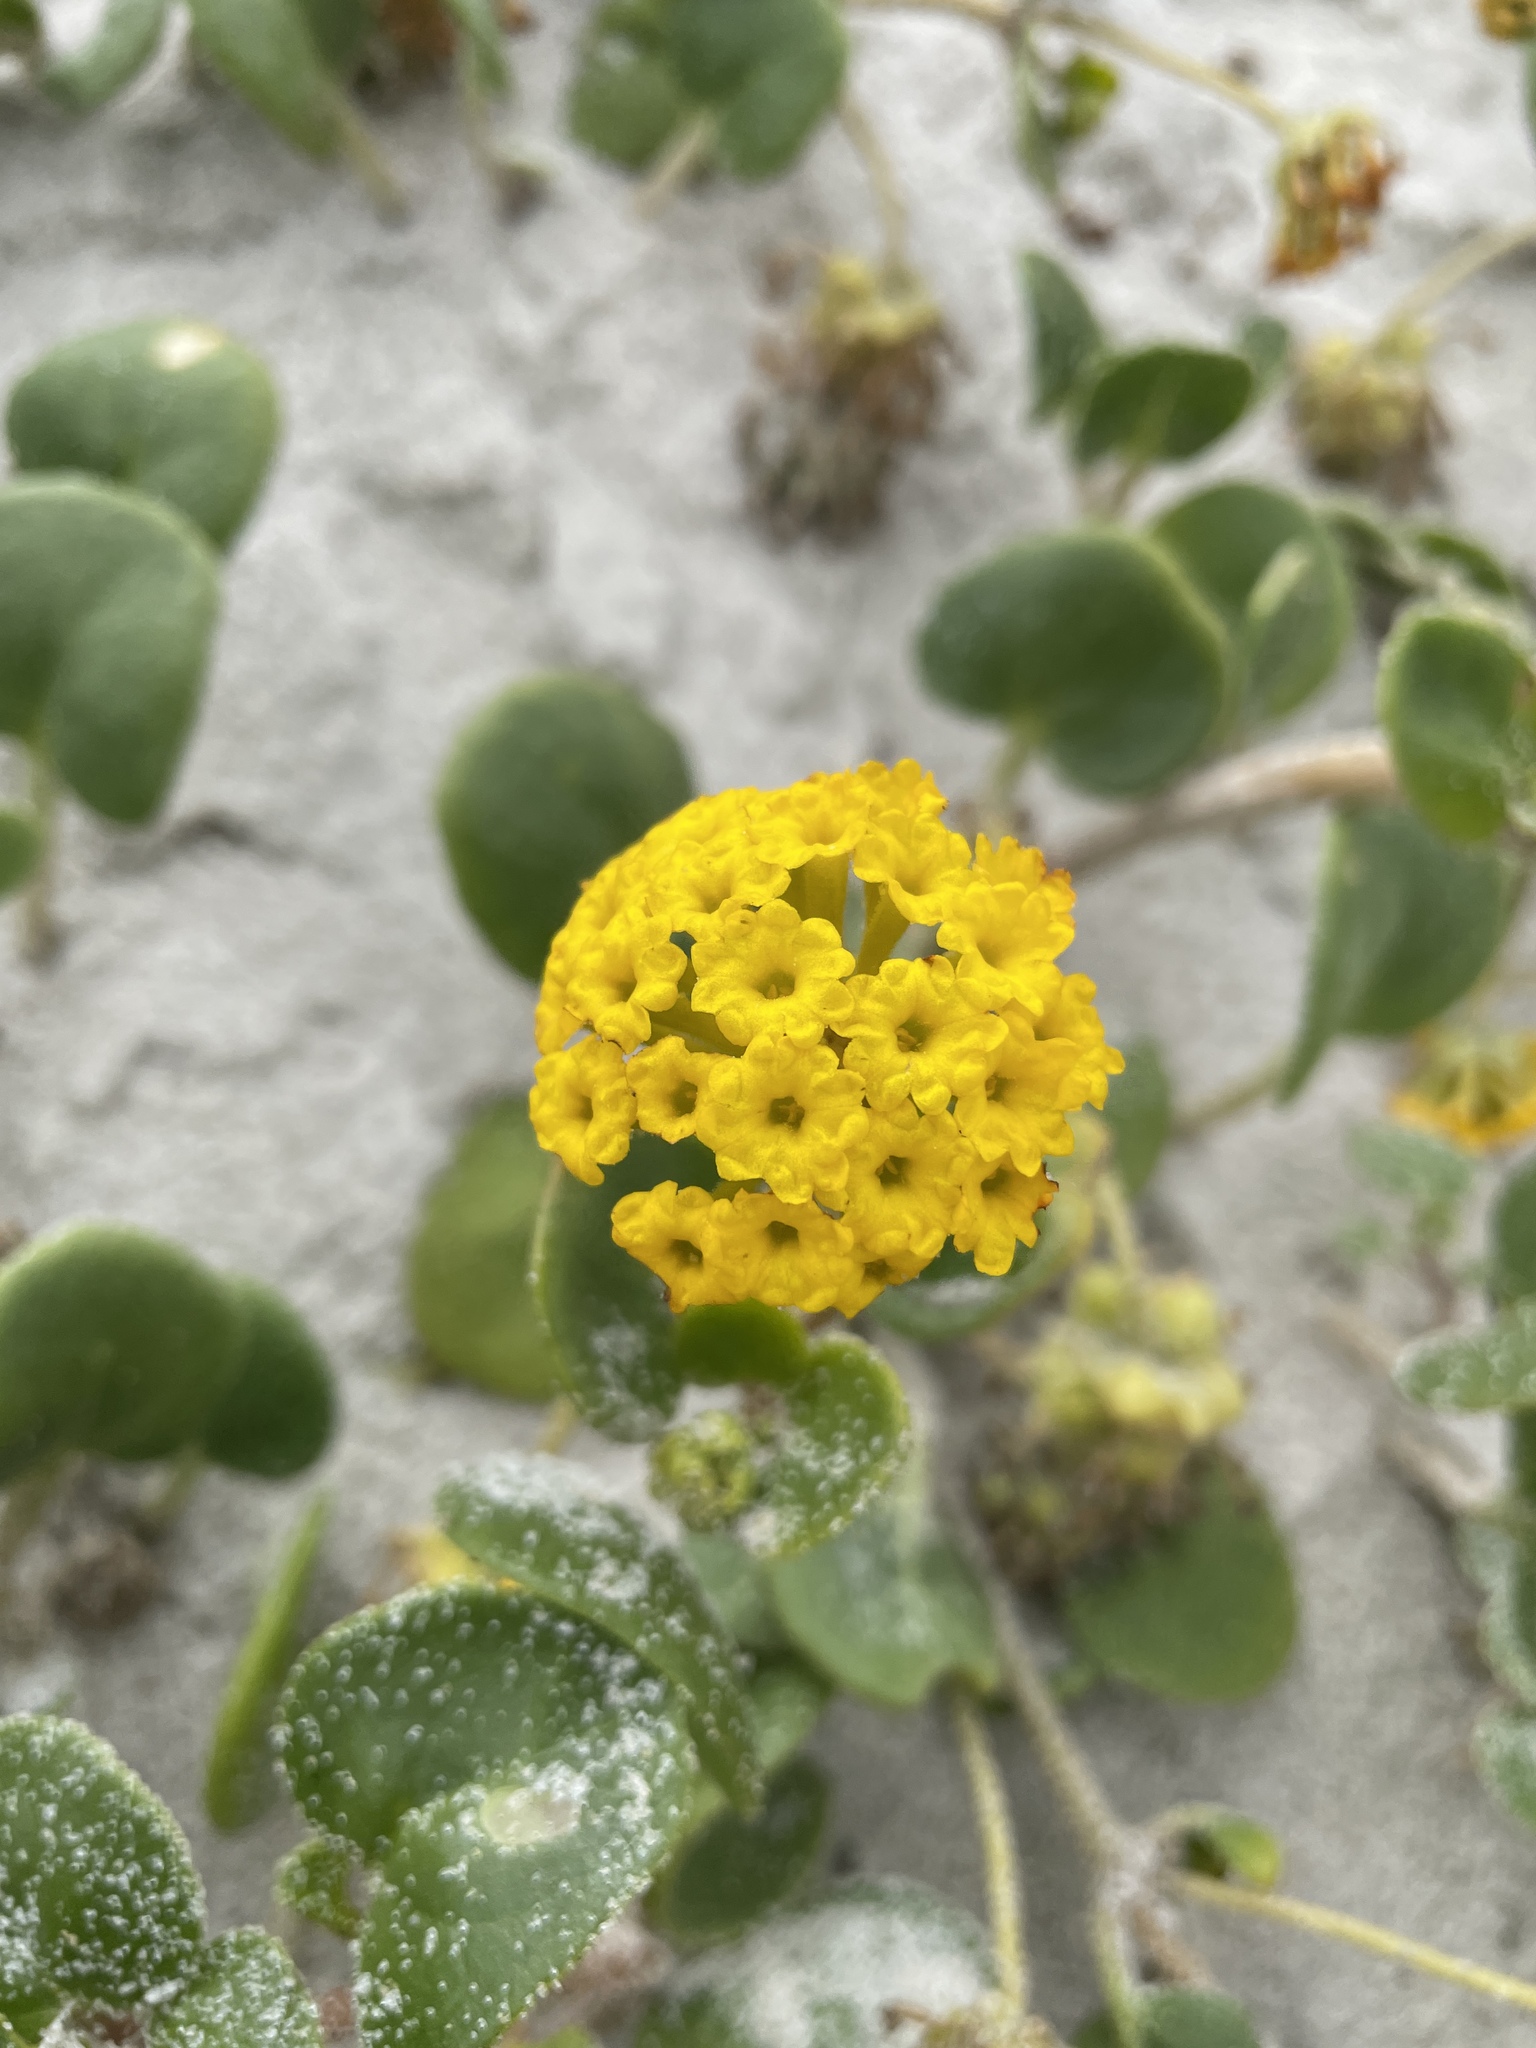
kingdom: Plantae
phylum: Tracheophyta
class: Magnoliopsida
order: Caryophyllales
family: Nyctaginaceae
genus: Abronia
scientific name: Abronia latifolia
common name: Yellow sand-verbena
